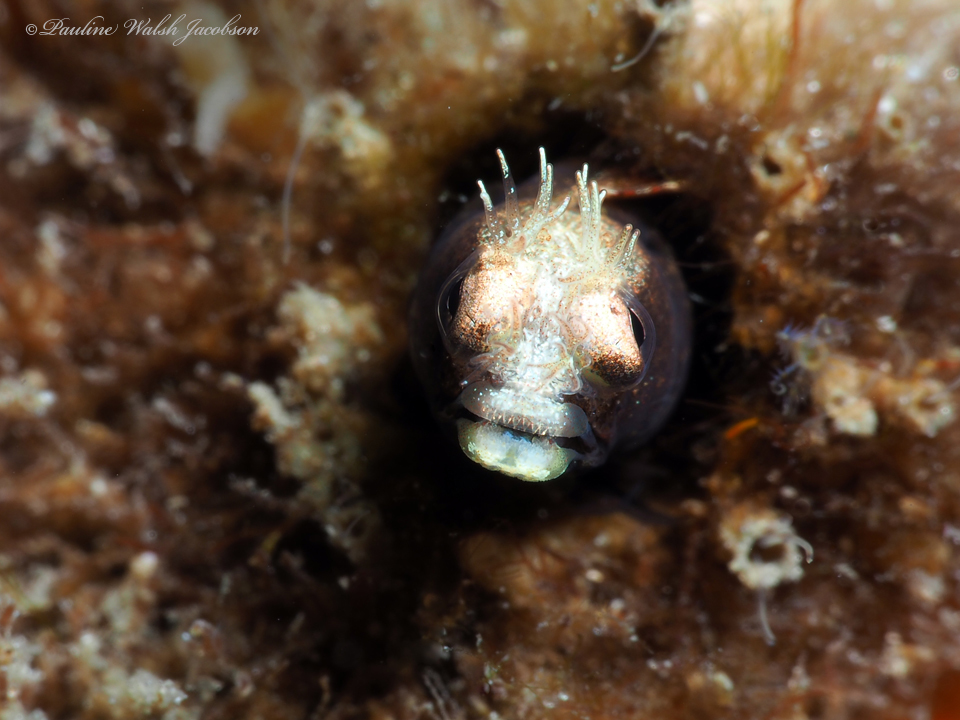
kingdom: Animalia
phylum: Chordata
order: Perciformes
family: Chaenopsidae
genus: Acanthemblemaria
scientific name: Acanthemblemaria aspera
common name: Roughhead blenny
